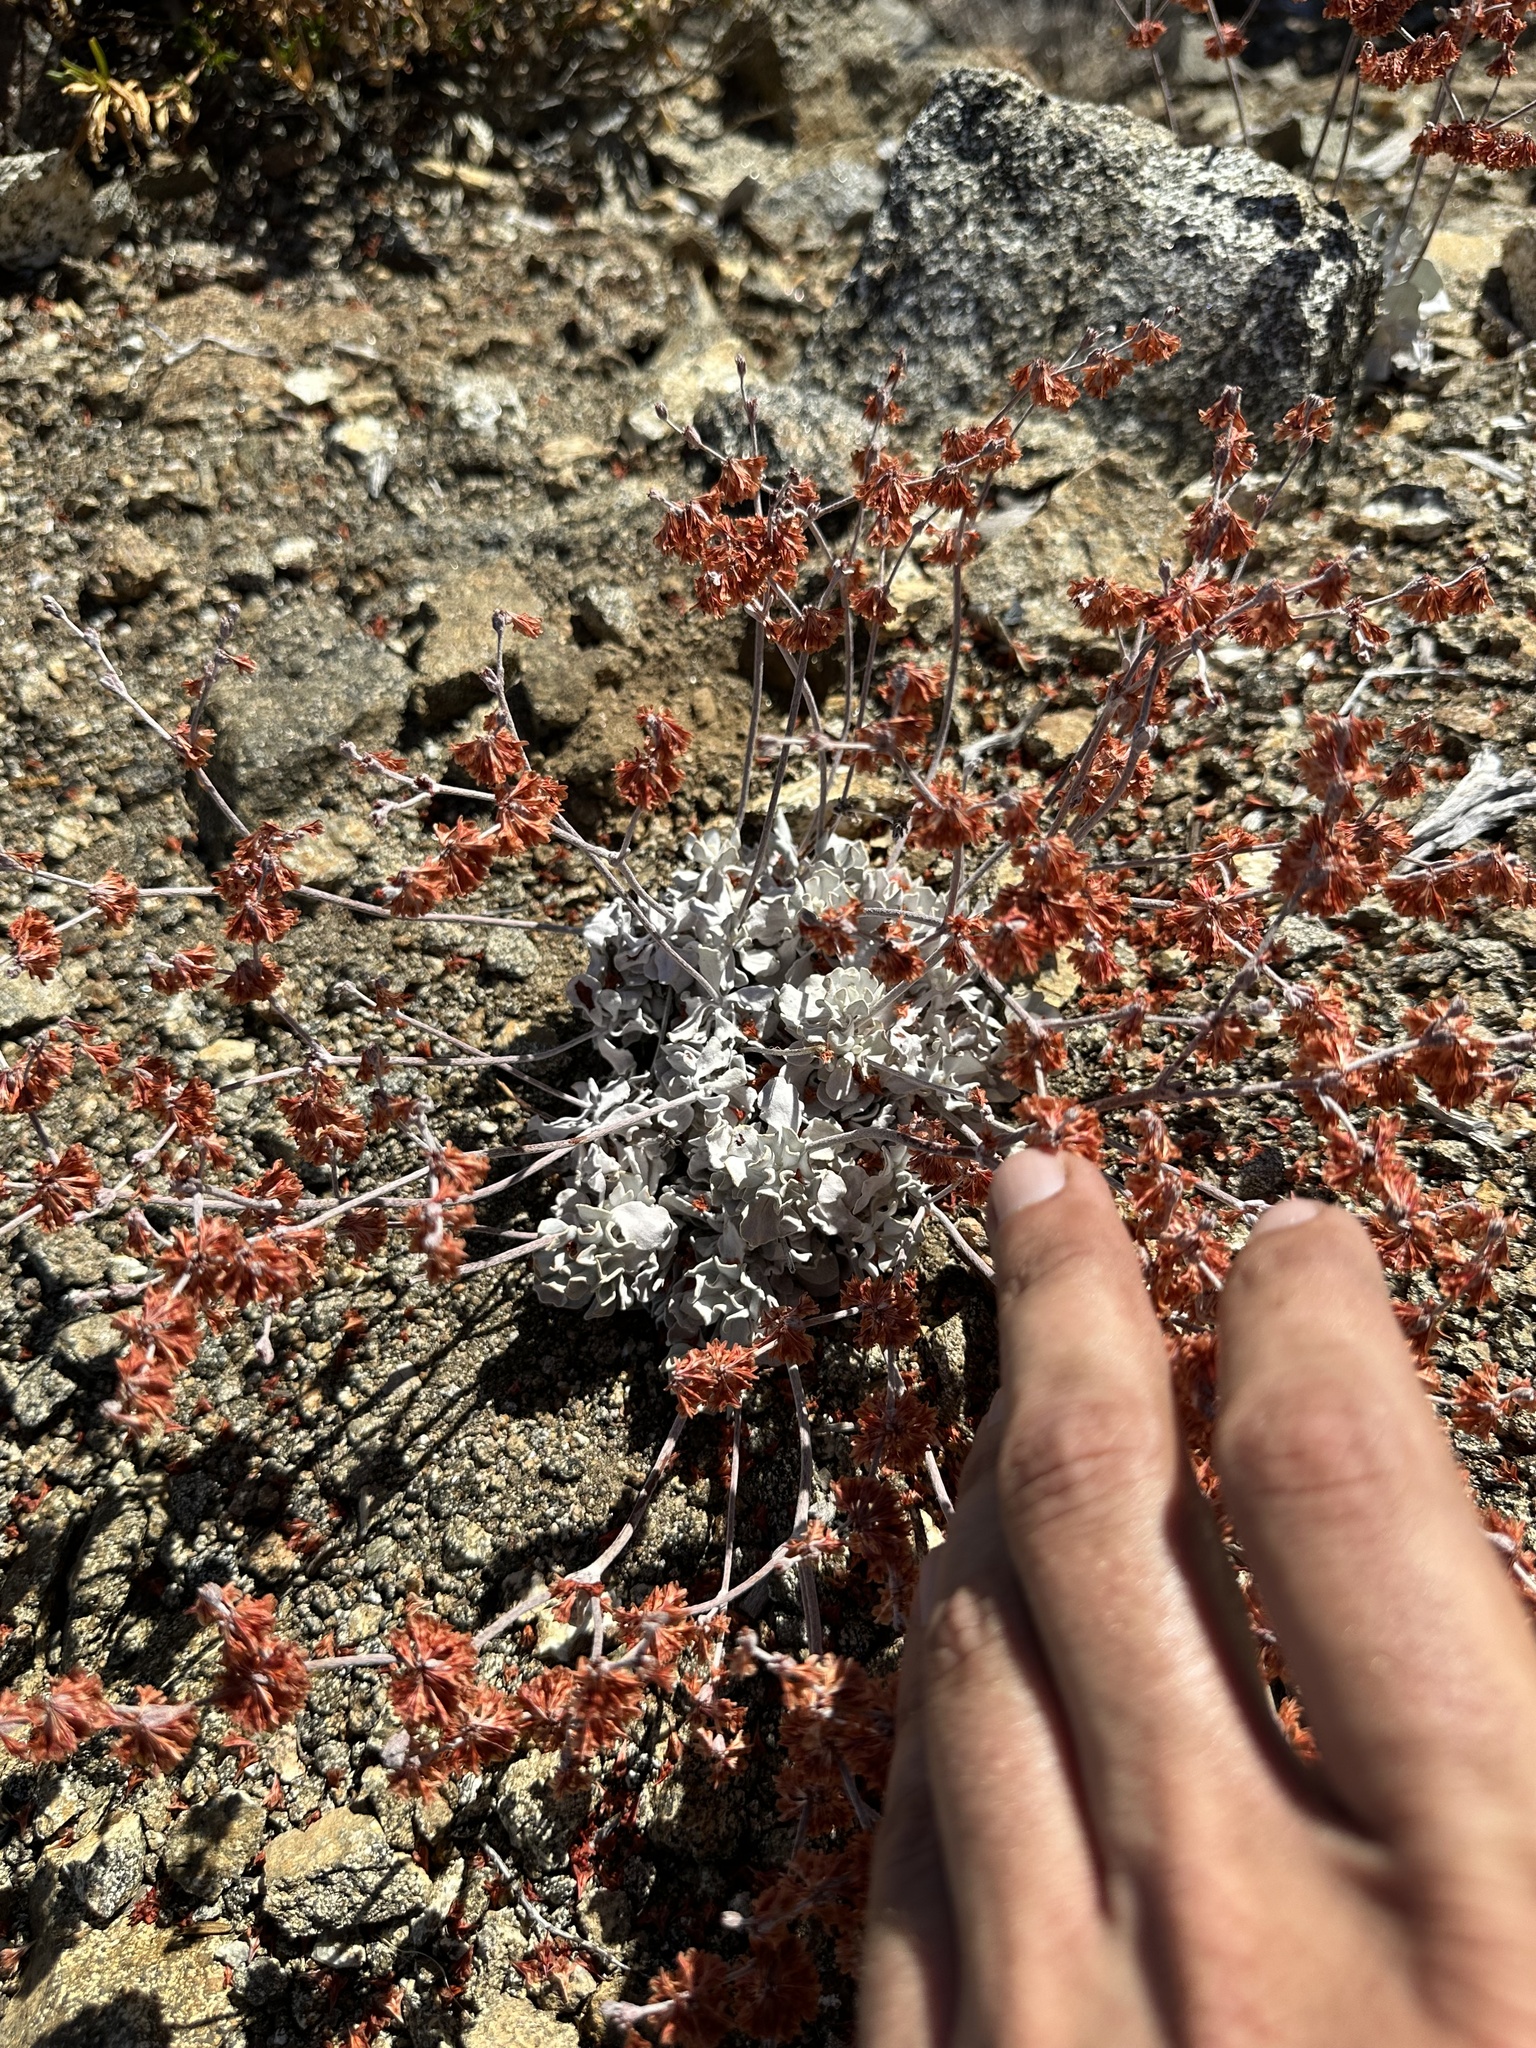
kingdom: Plantae
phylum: Tracheophyta
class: Magnoliopsida
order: Caryophyllales
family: Polygonaceae
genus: Eriogonum
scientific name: Eriogonum saxatile
